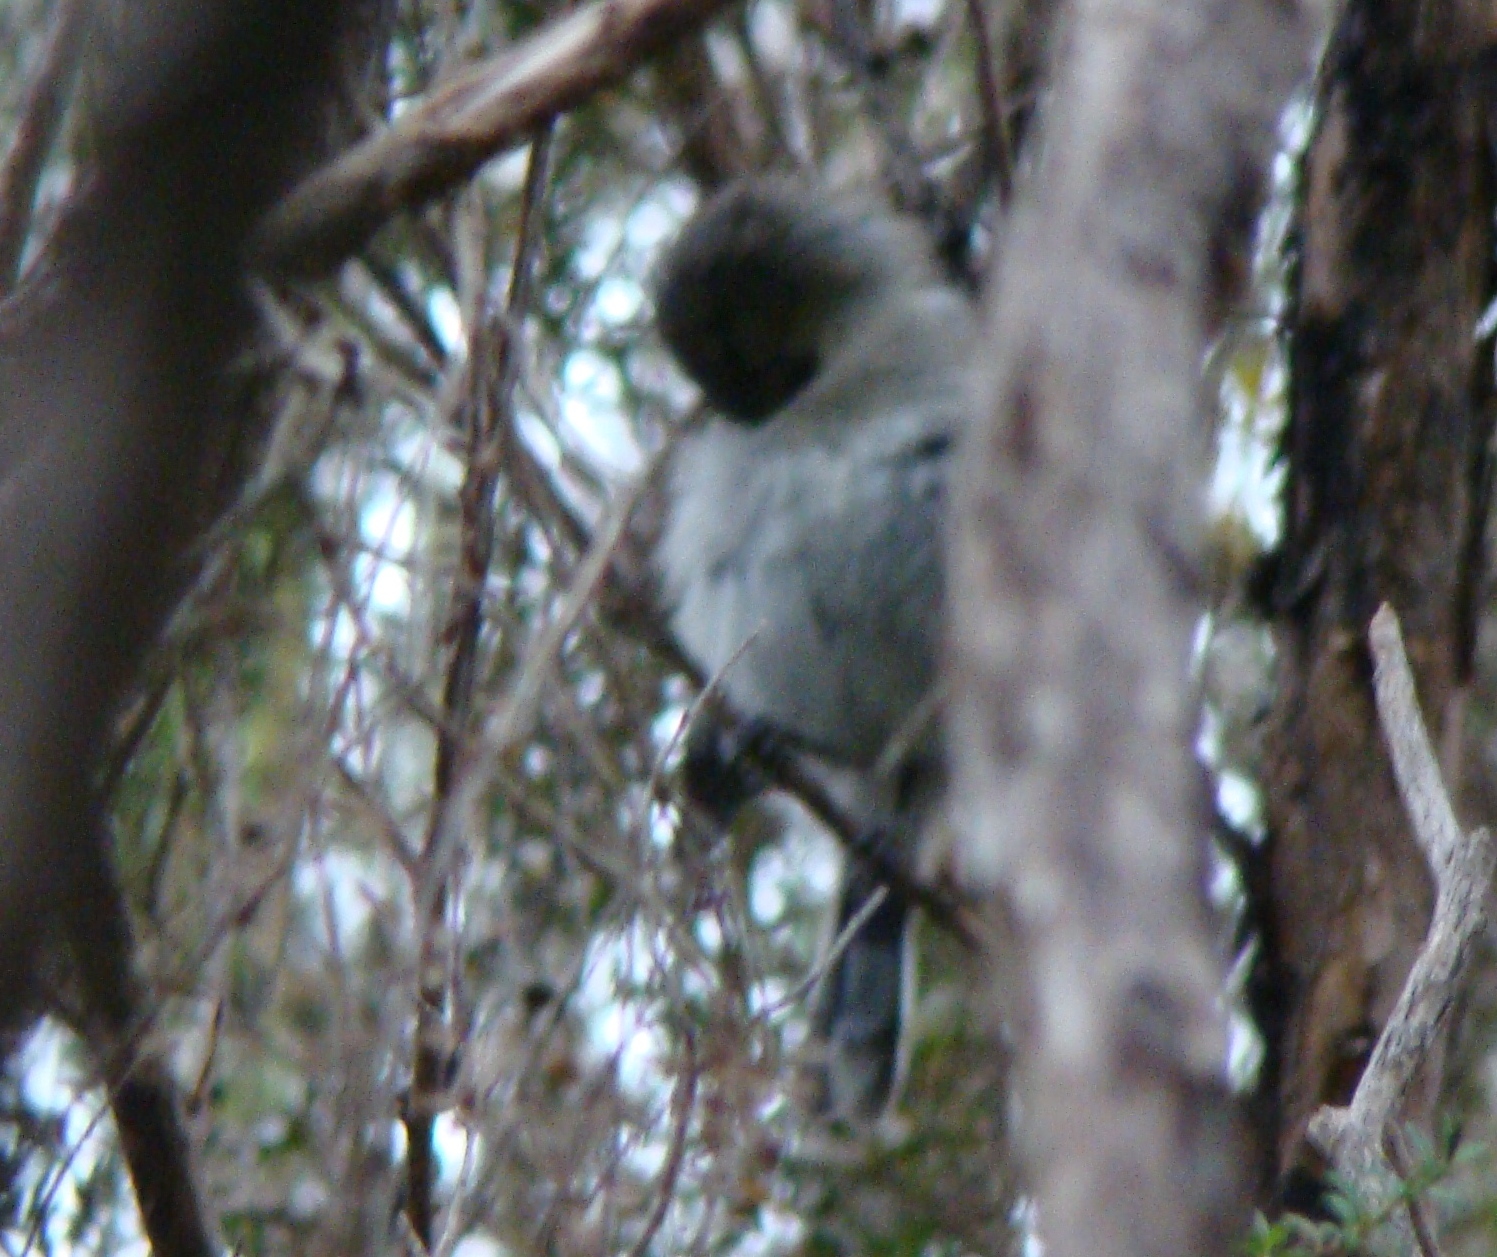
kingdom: Animalia
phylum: Chordata
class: Aves
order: Passeriformes
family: Acanthizidae
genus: Gerygone
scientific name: Gerygone igata
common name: Grey gerygone
